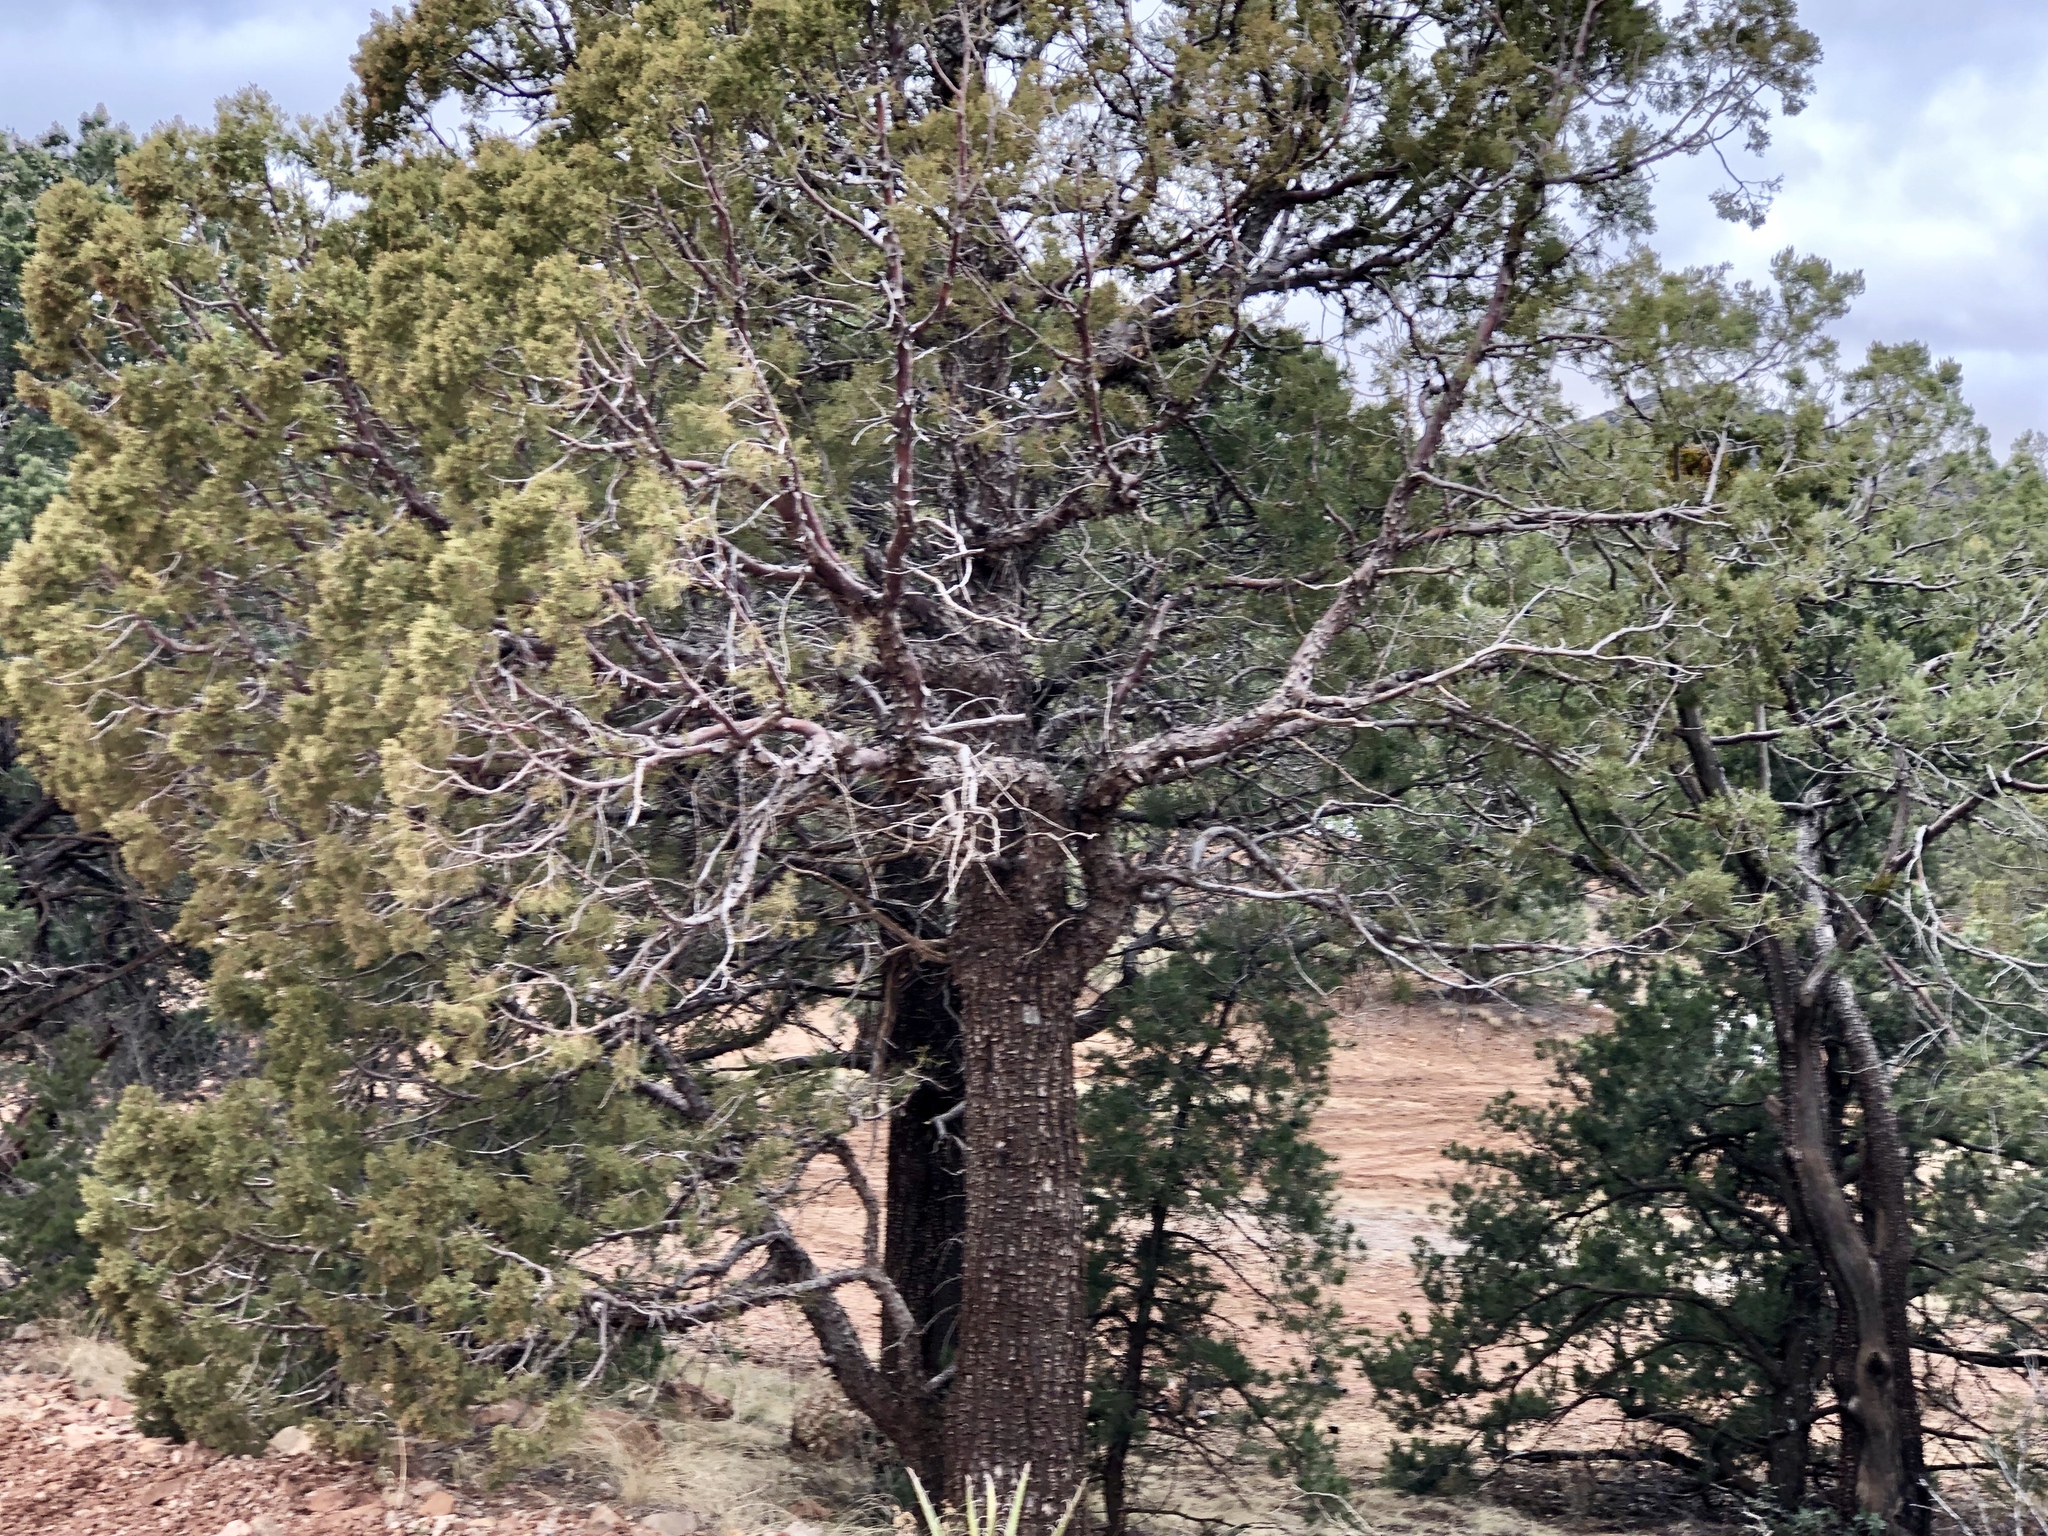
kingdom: Plantae
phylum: Tracheophyta
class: Pinopsida
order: Pinales
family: Cupressaceae
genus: Juniperus
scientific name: Juniperus deppeana
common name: Alligator juniper
